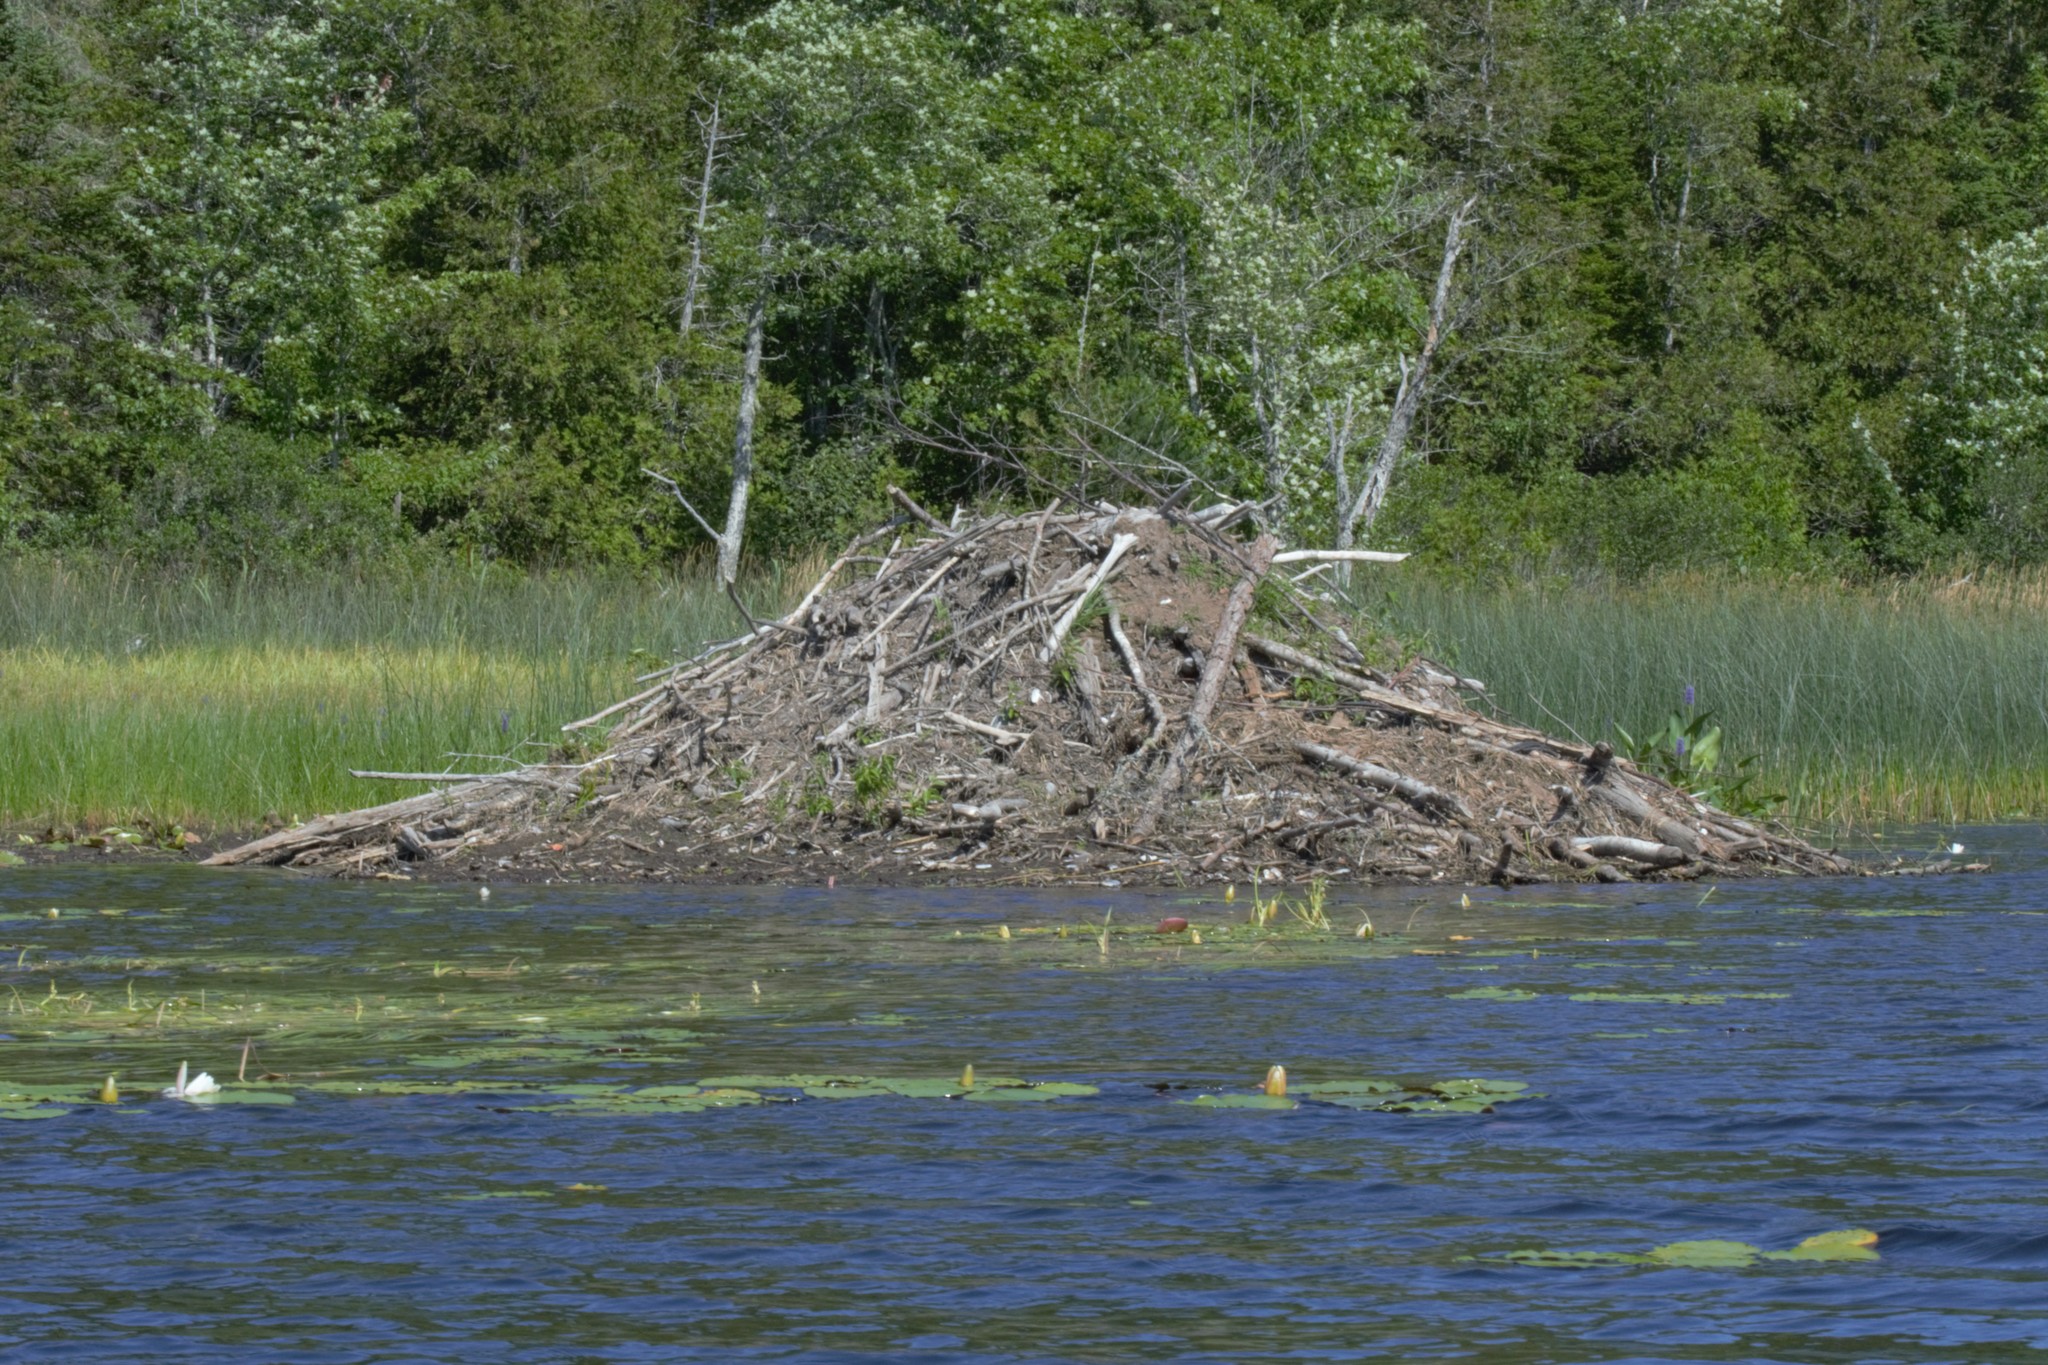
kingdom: Animalia
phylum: Chordata
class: Mammalia
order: Rodentia
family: Castoridae
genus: Castor
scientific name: Castor canadensis
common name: American beaver
